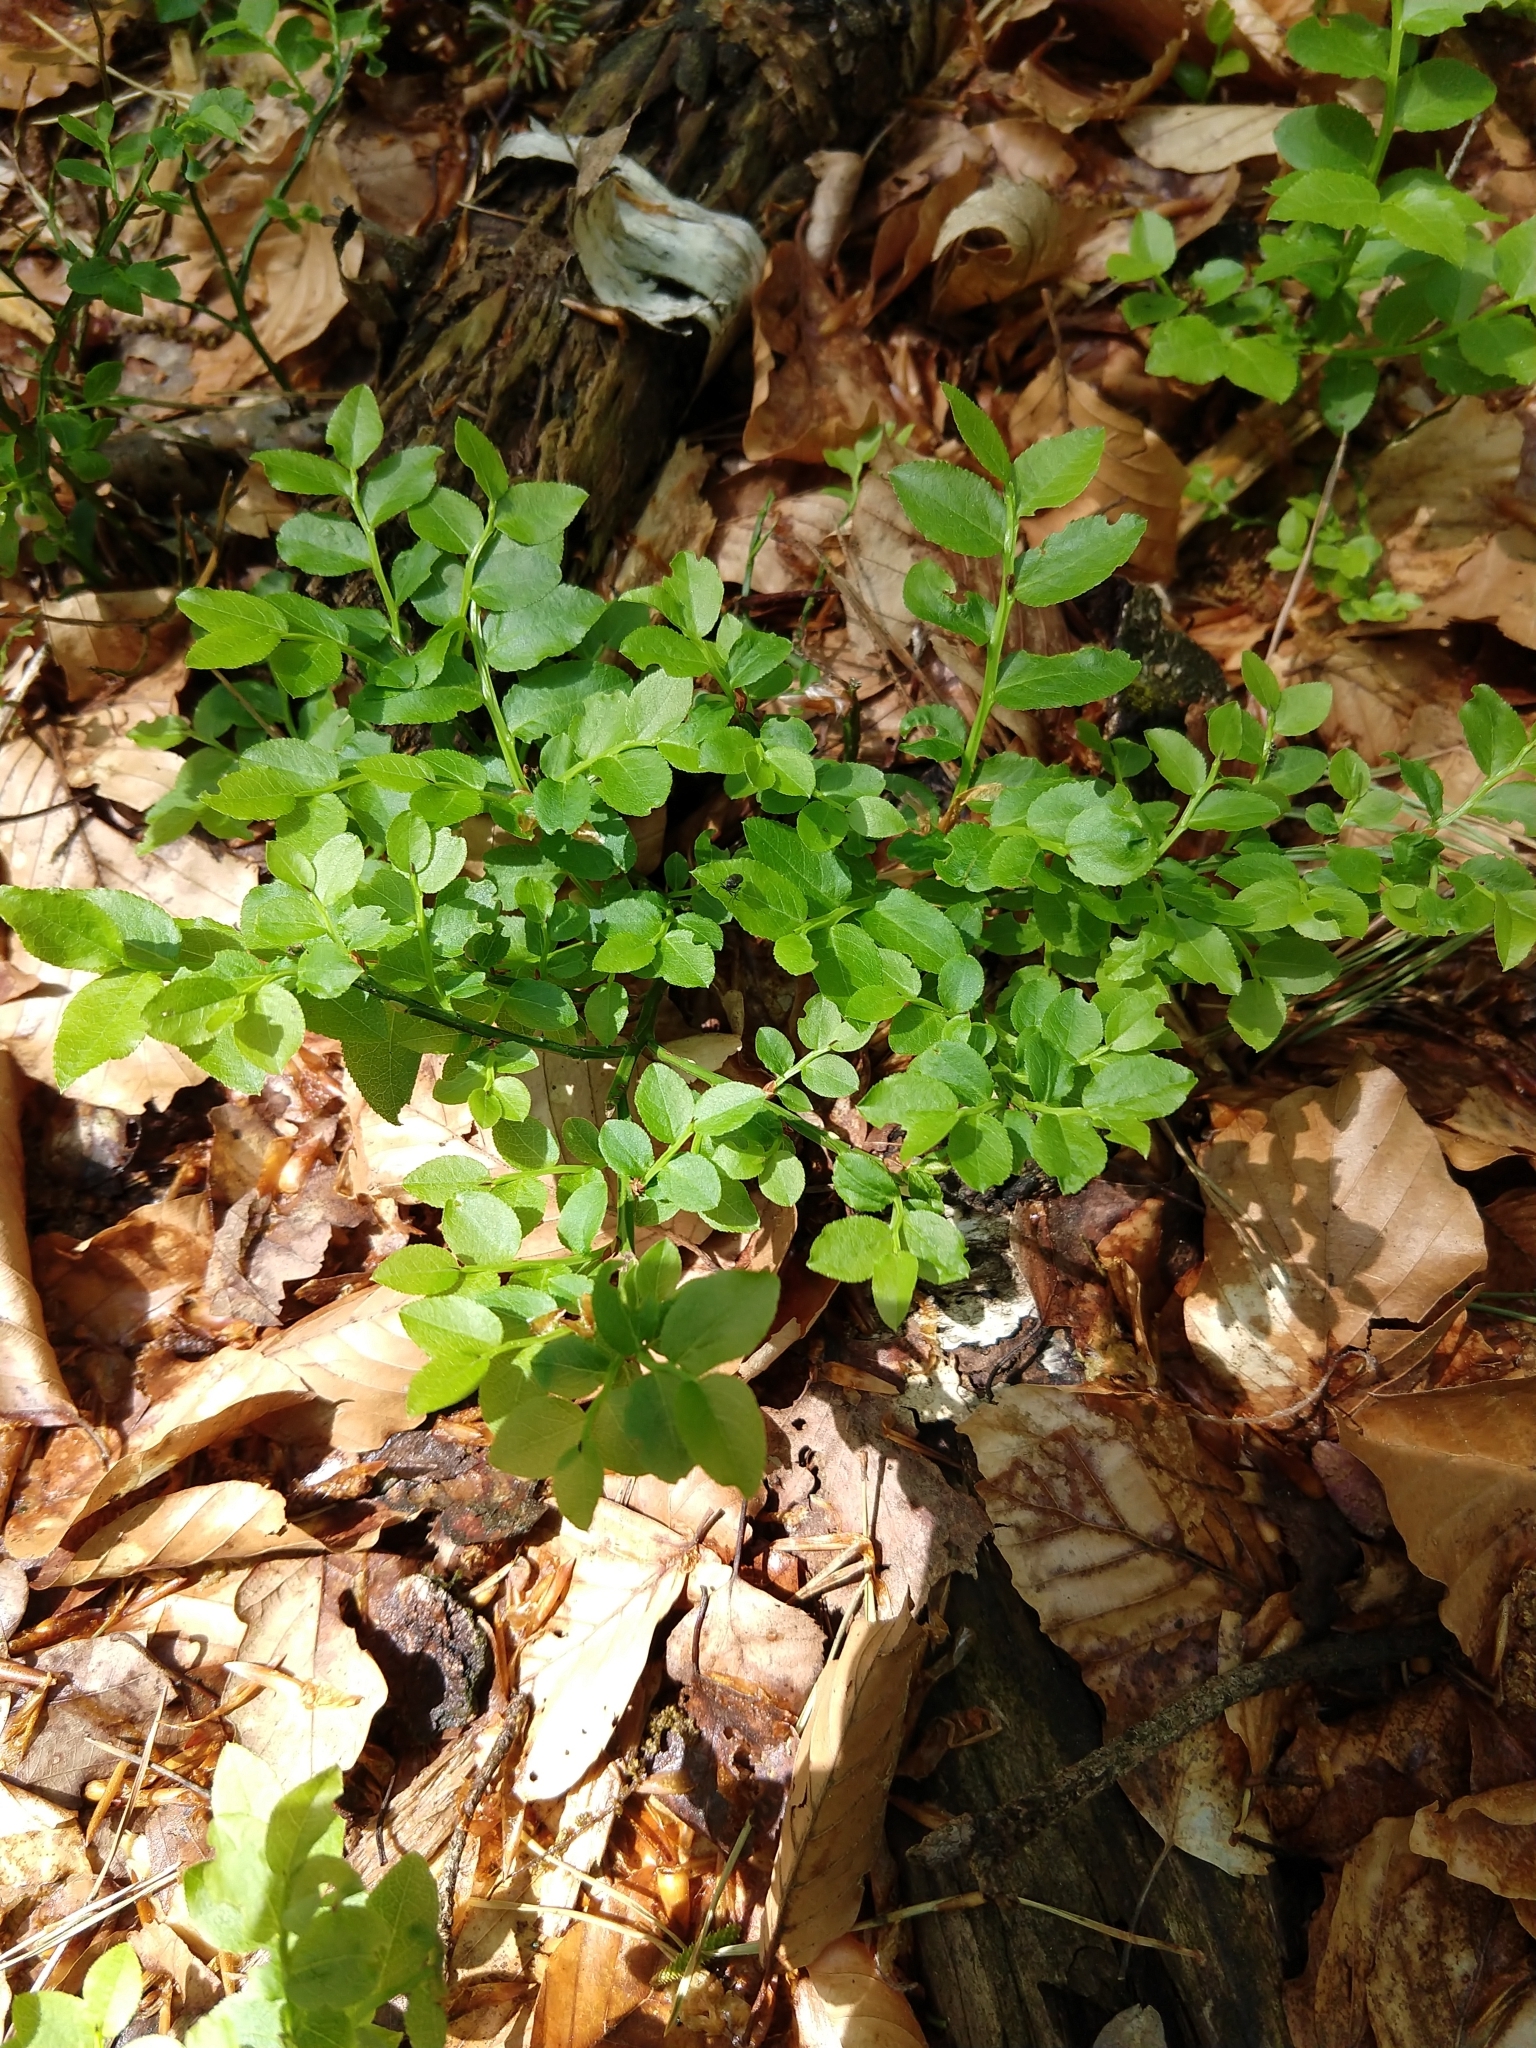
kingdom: Plantae
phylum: Tracheophyta
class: Magnoliopsida
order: Ericales
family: Ericaceae
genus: Vaccinium
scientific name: Vaccinium myrtillus
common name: Bilberry
